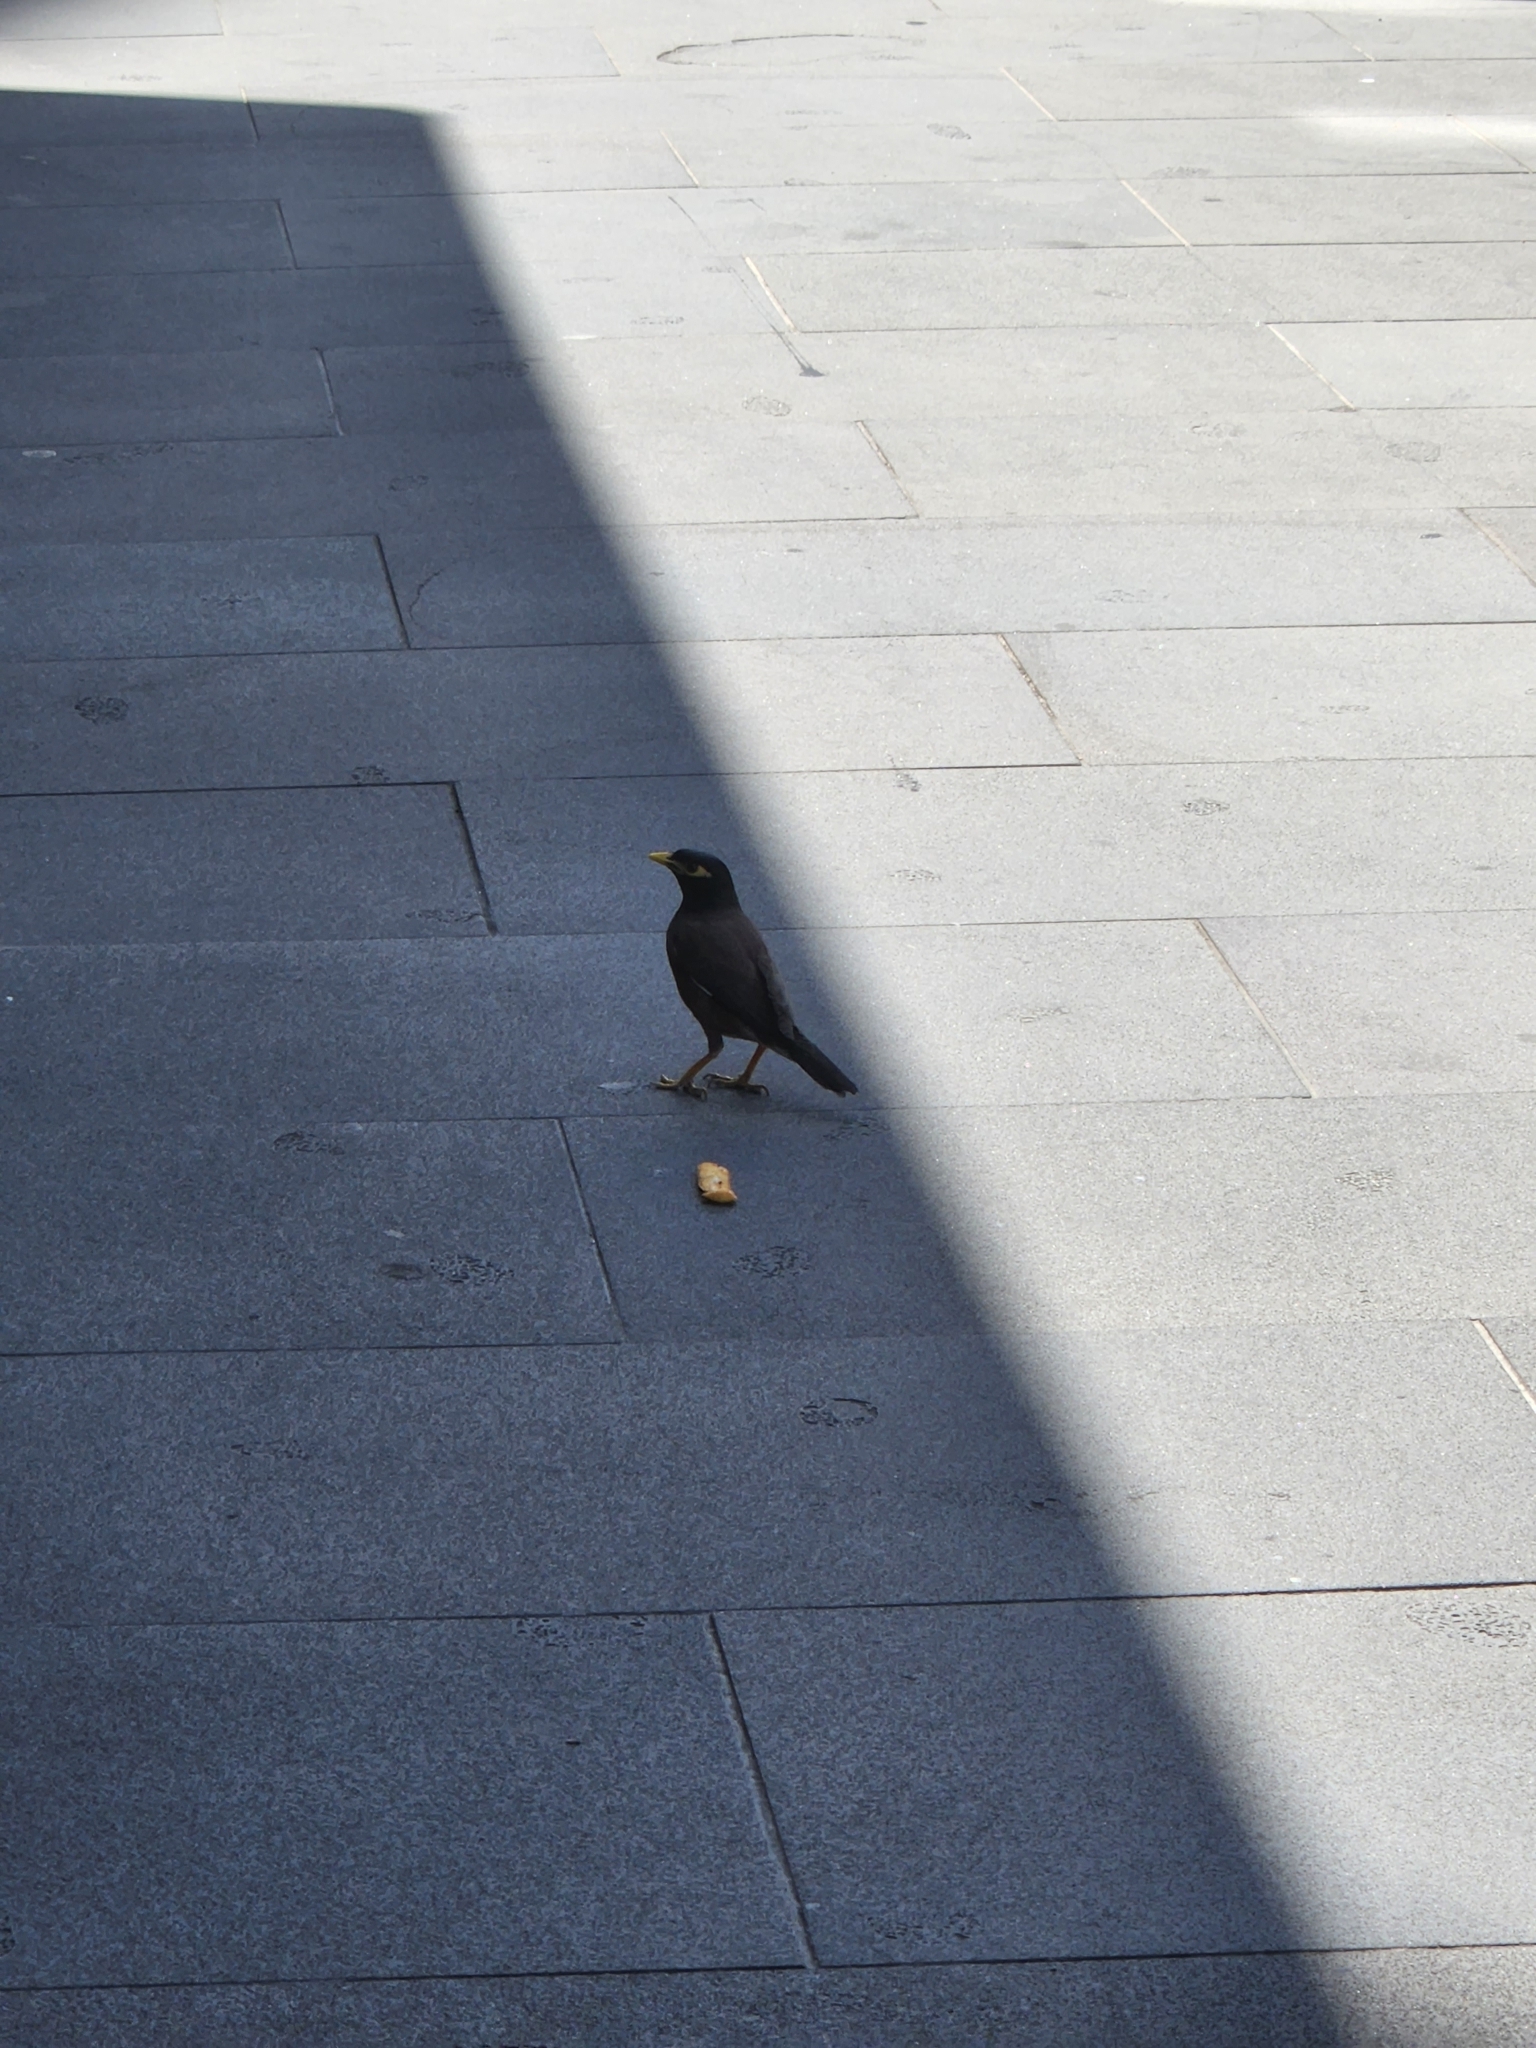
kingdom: Animalia
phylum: Chordata
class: Aves
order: Passeriformes
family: Sturnidae
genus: Acridotheres
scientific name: Acridotheres tristis
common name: Common myna
